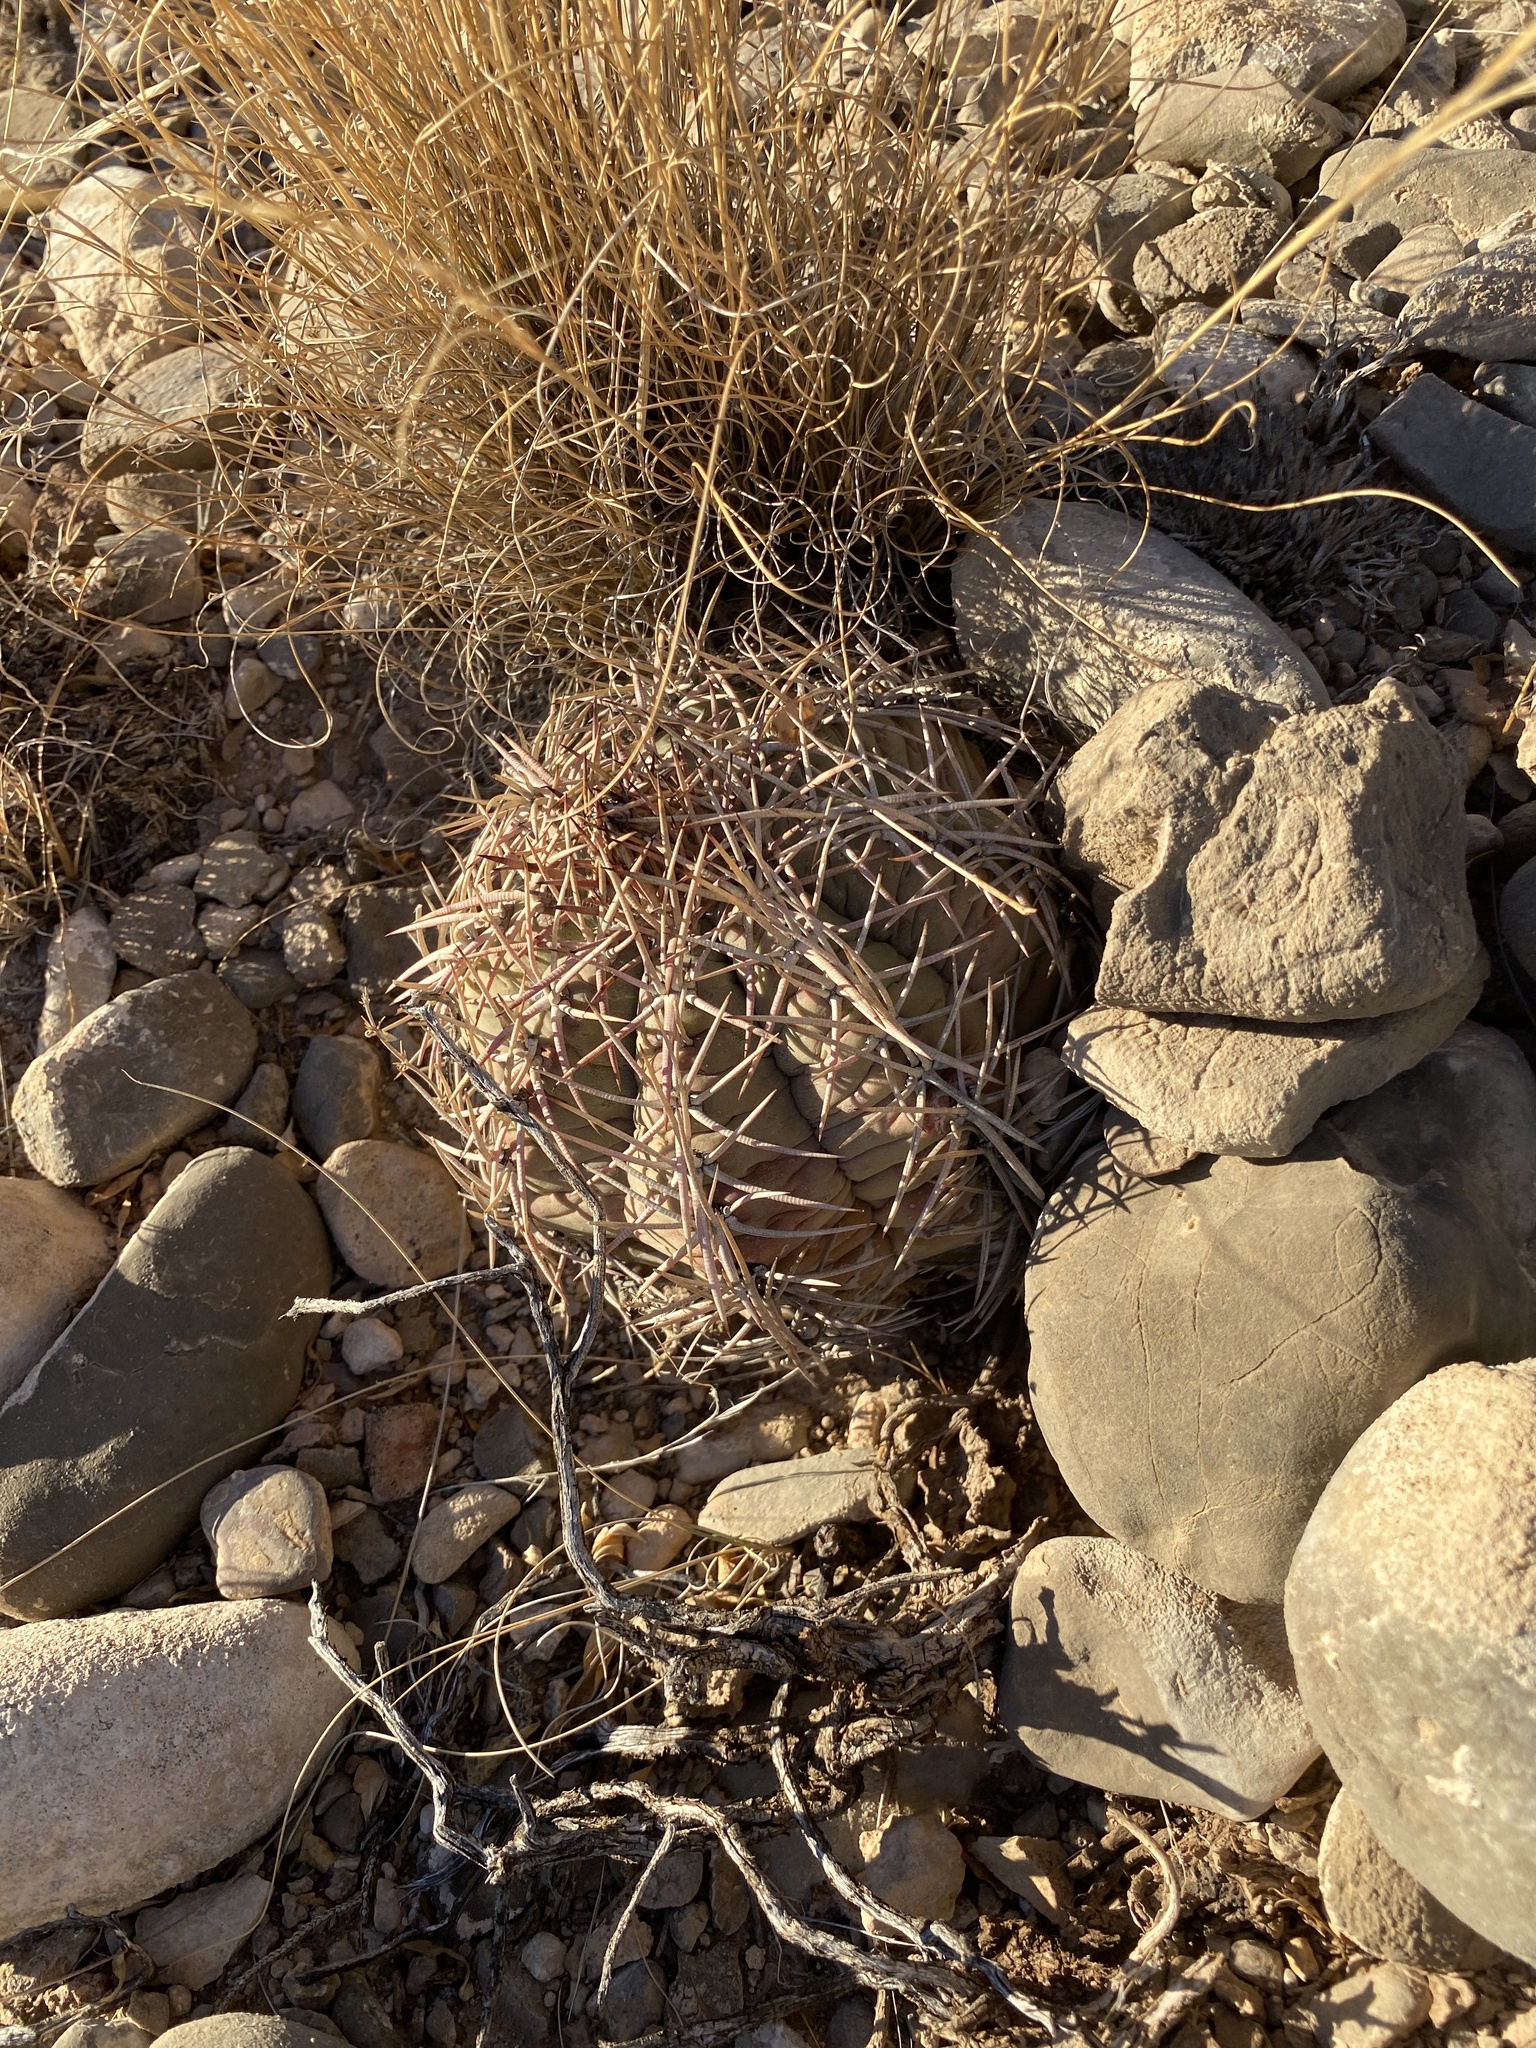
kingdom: Plantae
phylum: Tracheophyta
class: Magnoliopsida
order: Caryophyllales
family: Cactaceae
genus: Echinocactus
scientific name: Echinocactus horizonthalonius
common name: Devilshead
